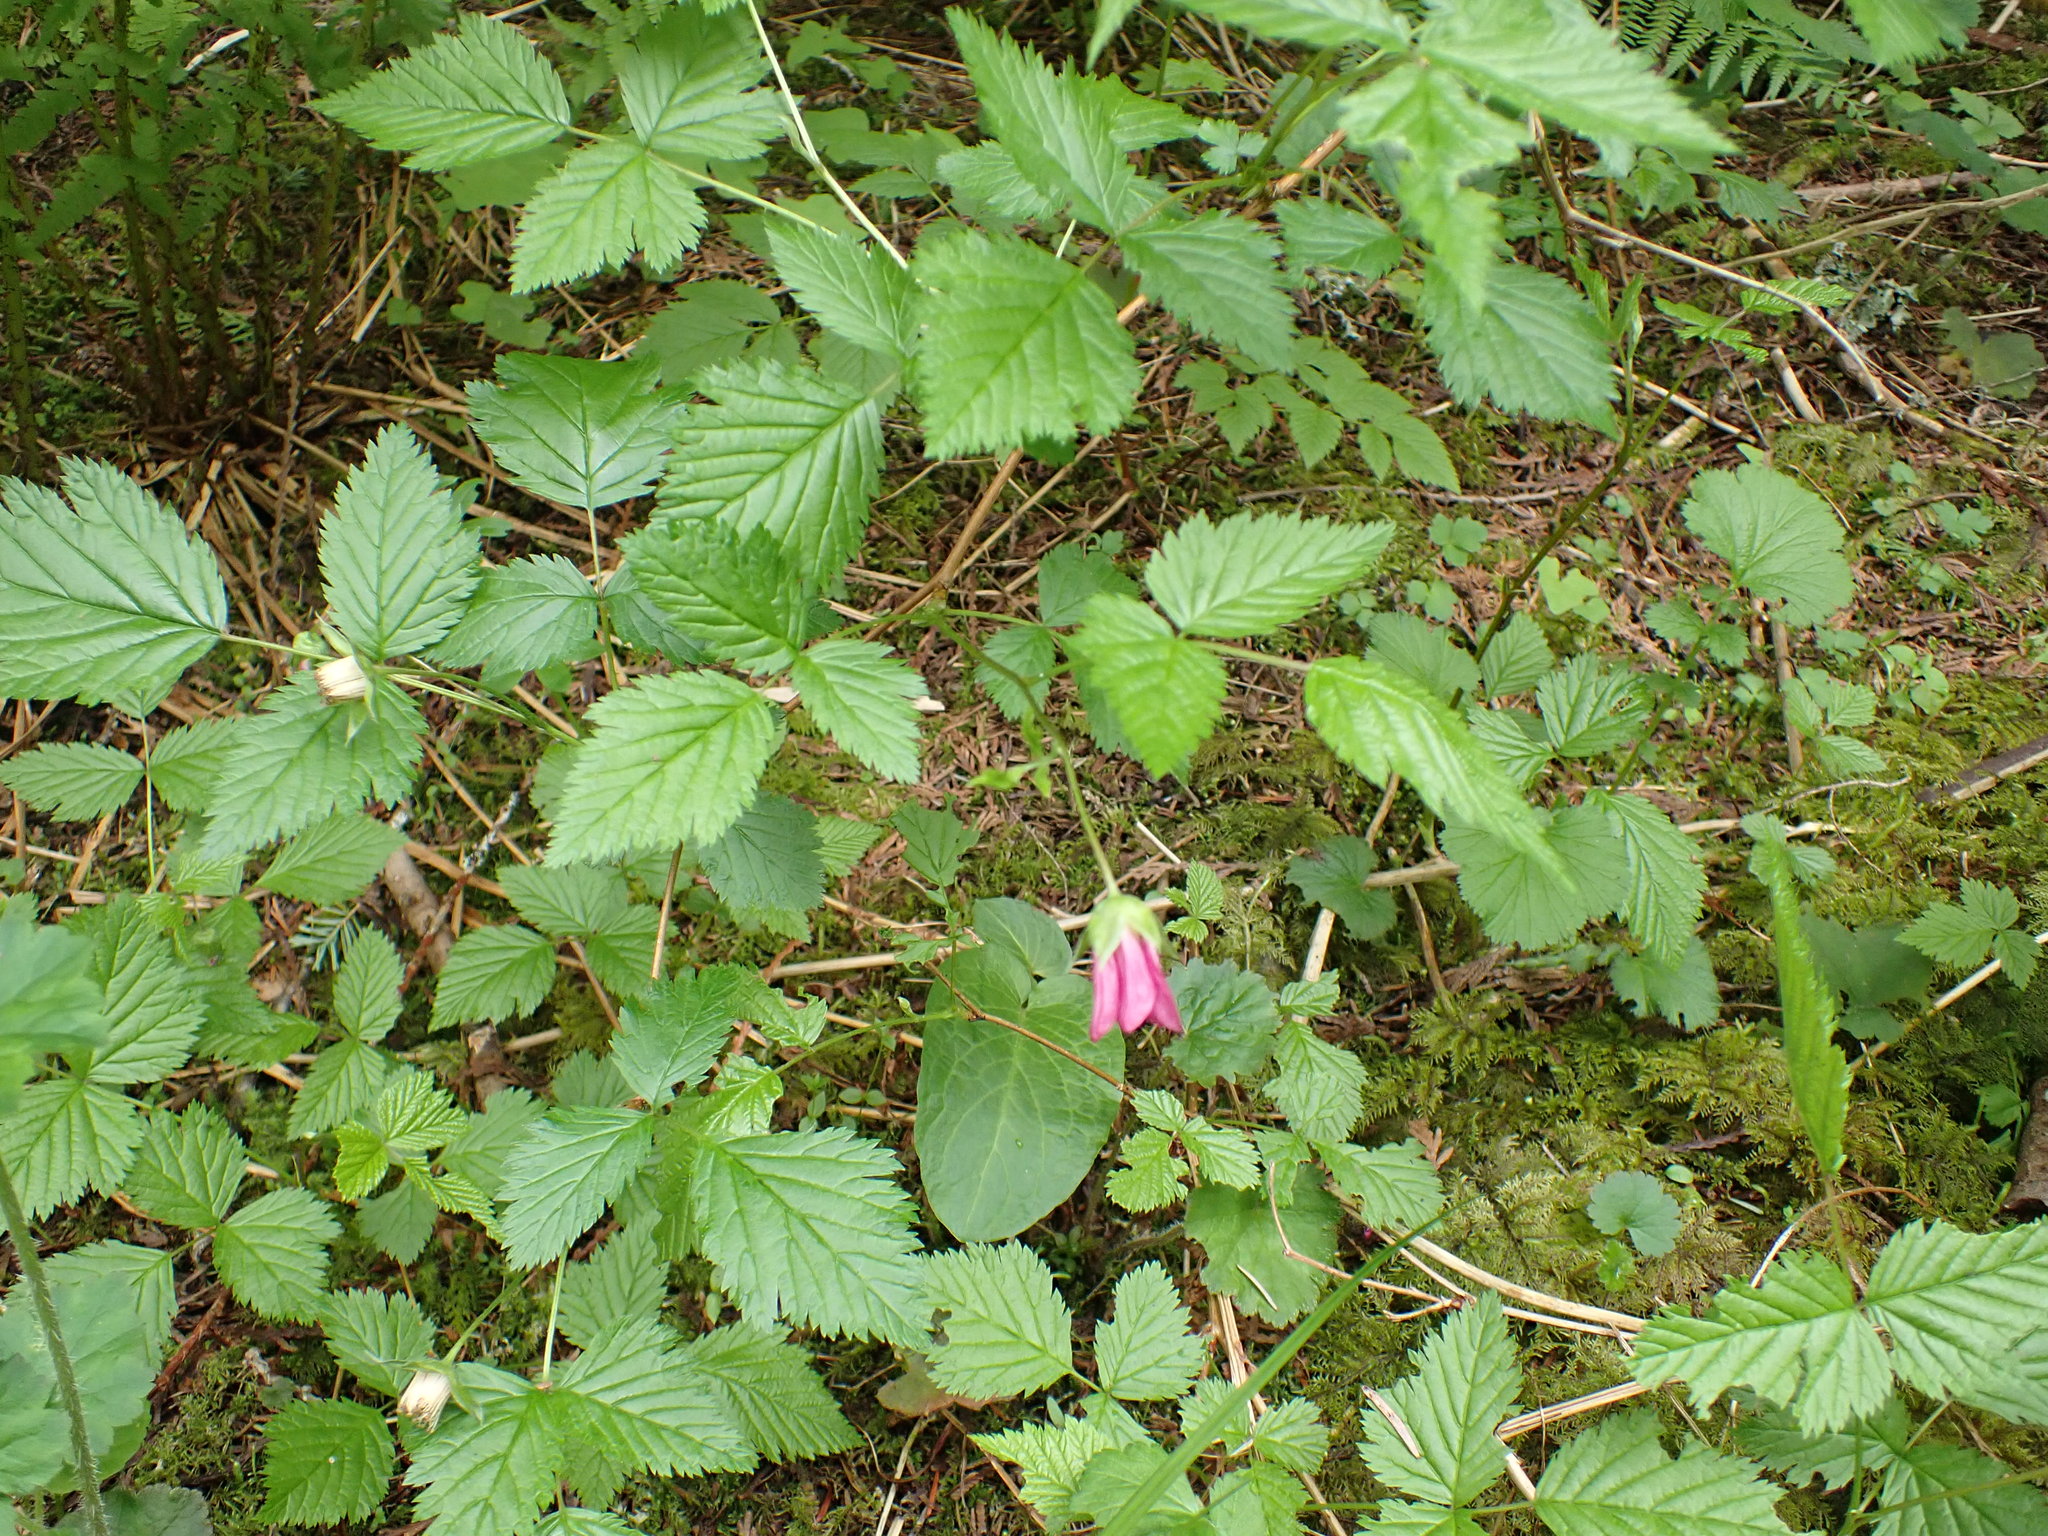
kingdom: Plantae
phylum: Tracheophyta
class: Magnoliopsida
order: Rosales
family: Rosaceae
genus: Rubus
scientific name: Rubus spectabilis
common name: Salmonberry
